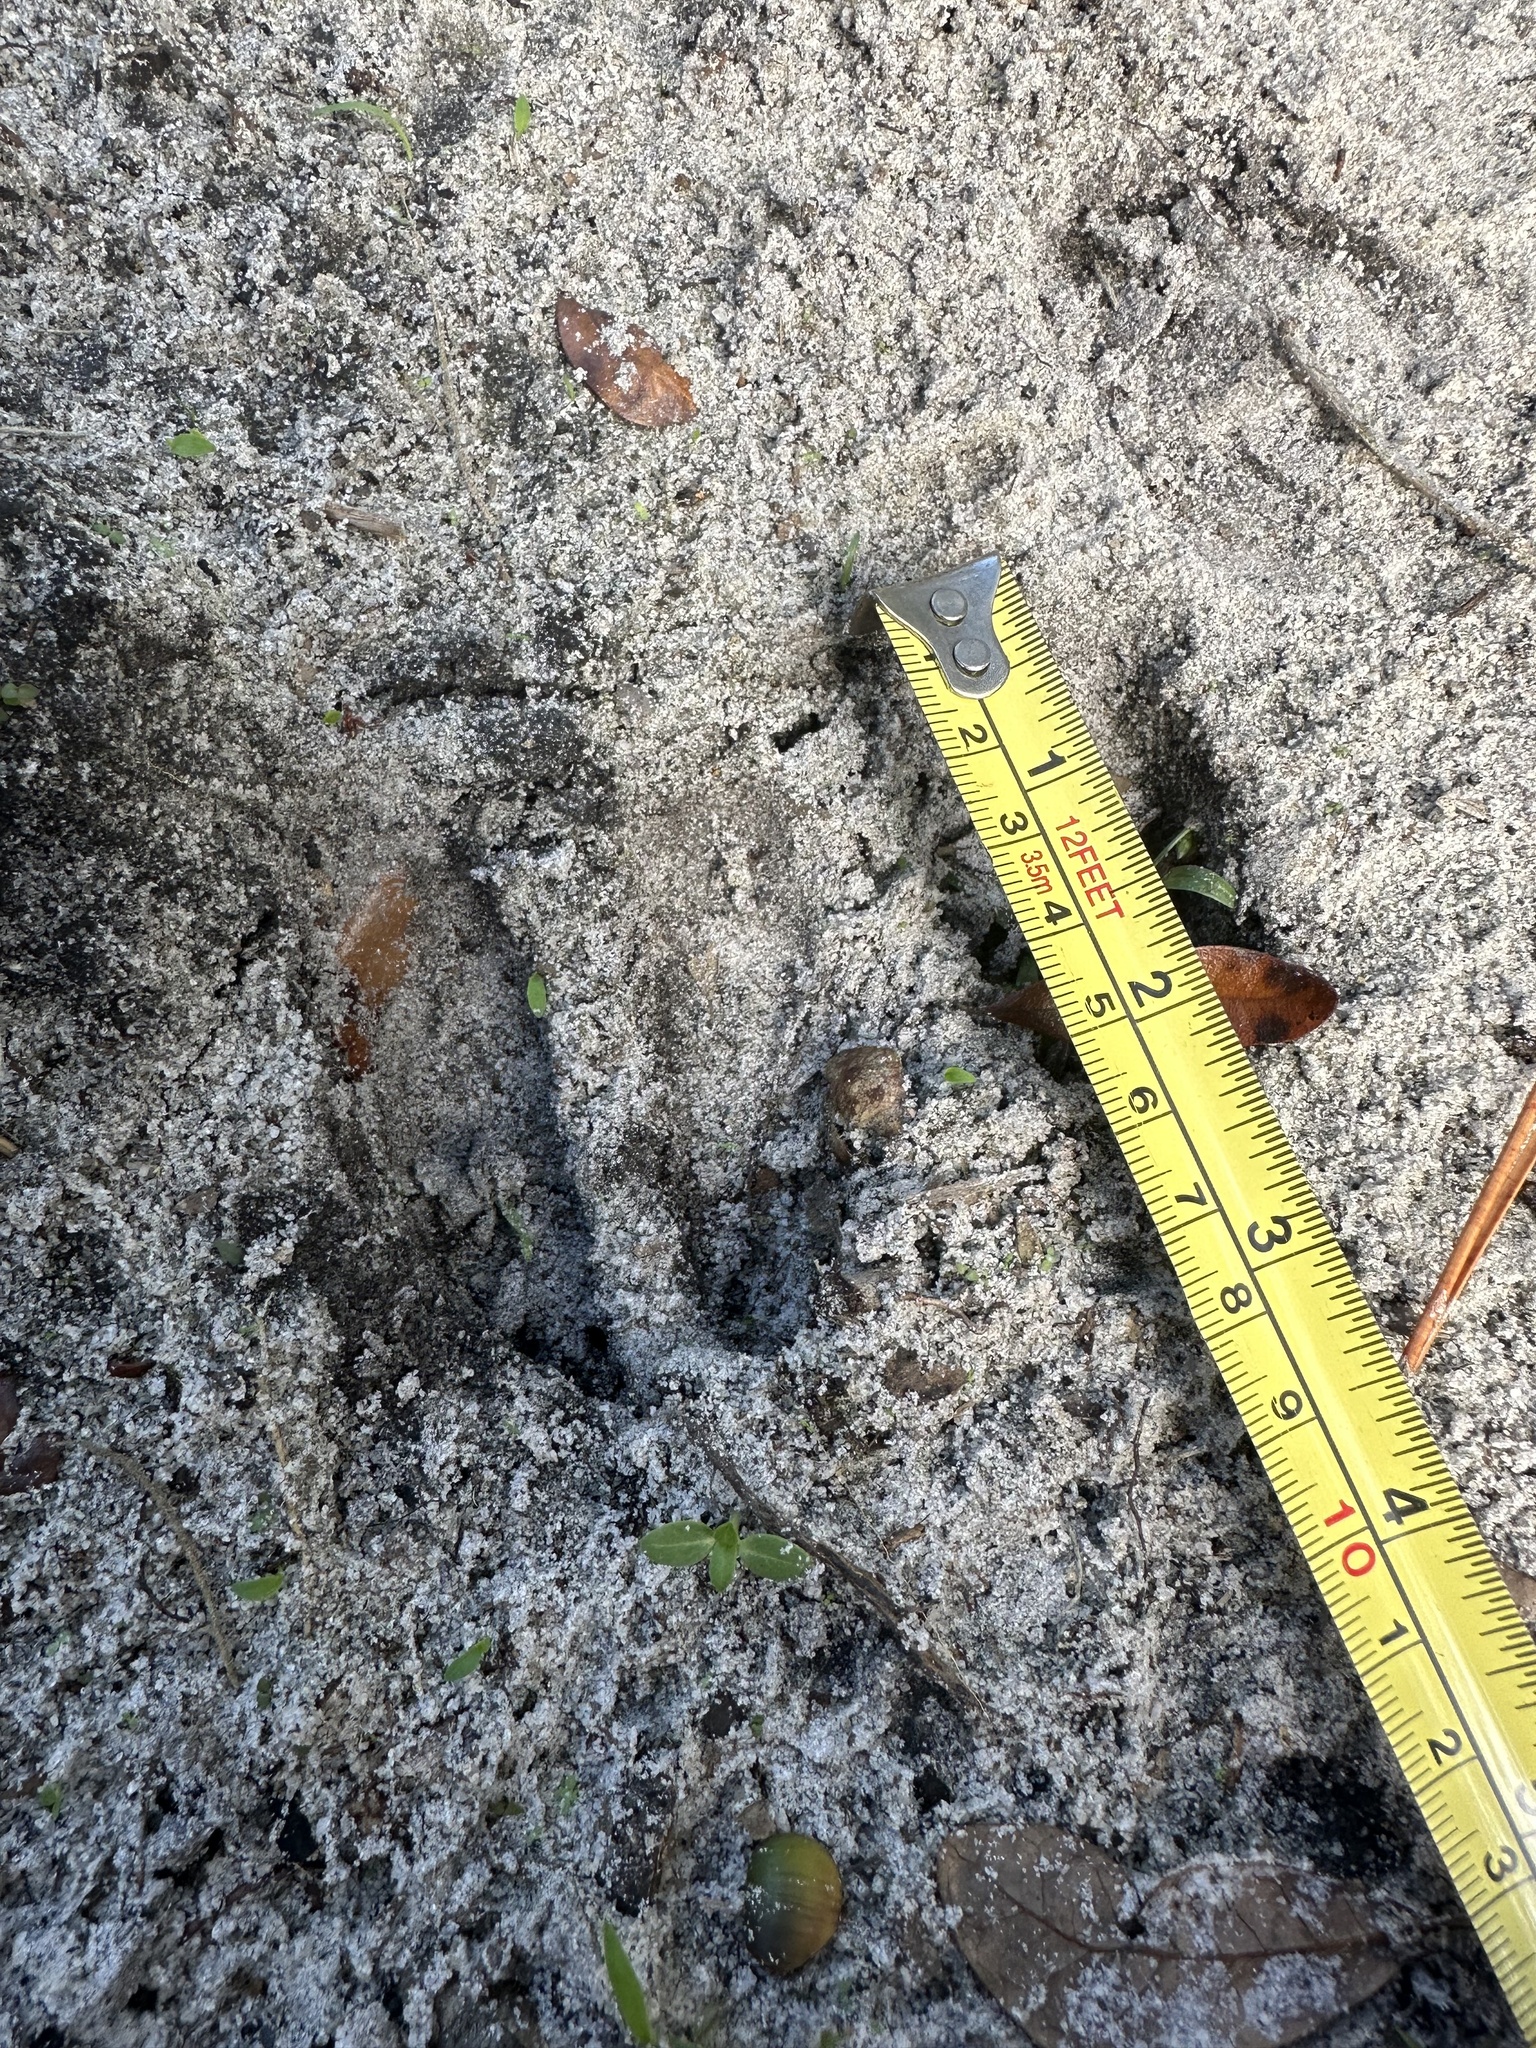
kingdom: Animalia
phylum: Chordata
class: Mammalia
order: Artiodactyla
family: Cervidae
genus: Odocoileus
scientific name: Odocoileus virginianus
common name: White-tailed deer
